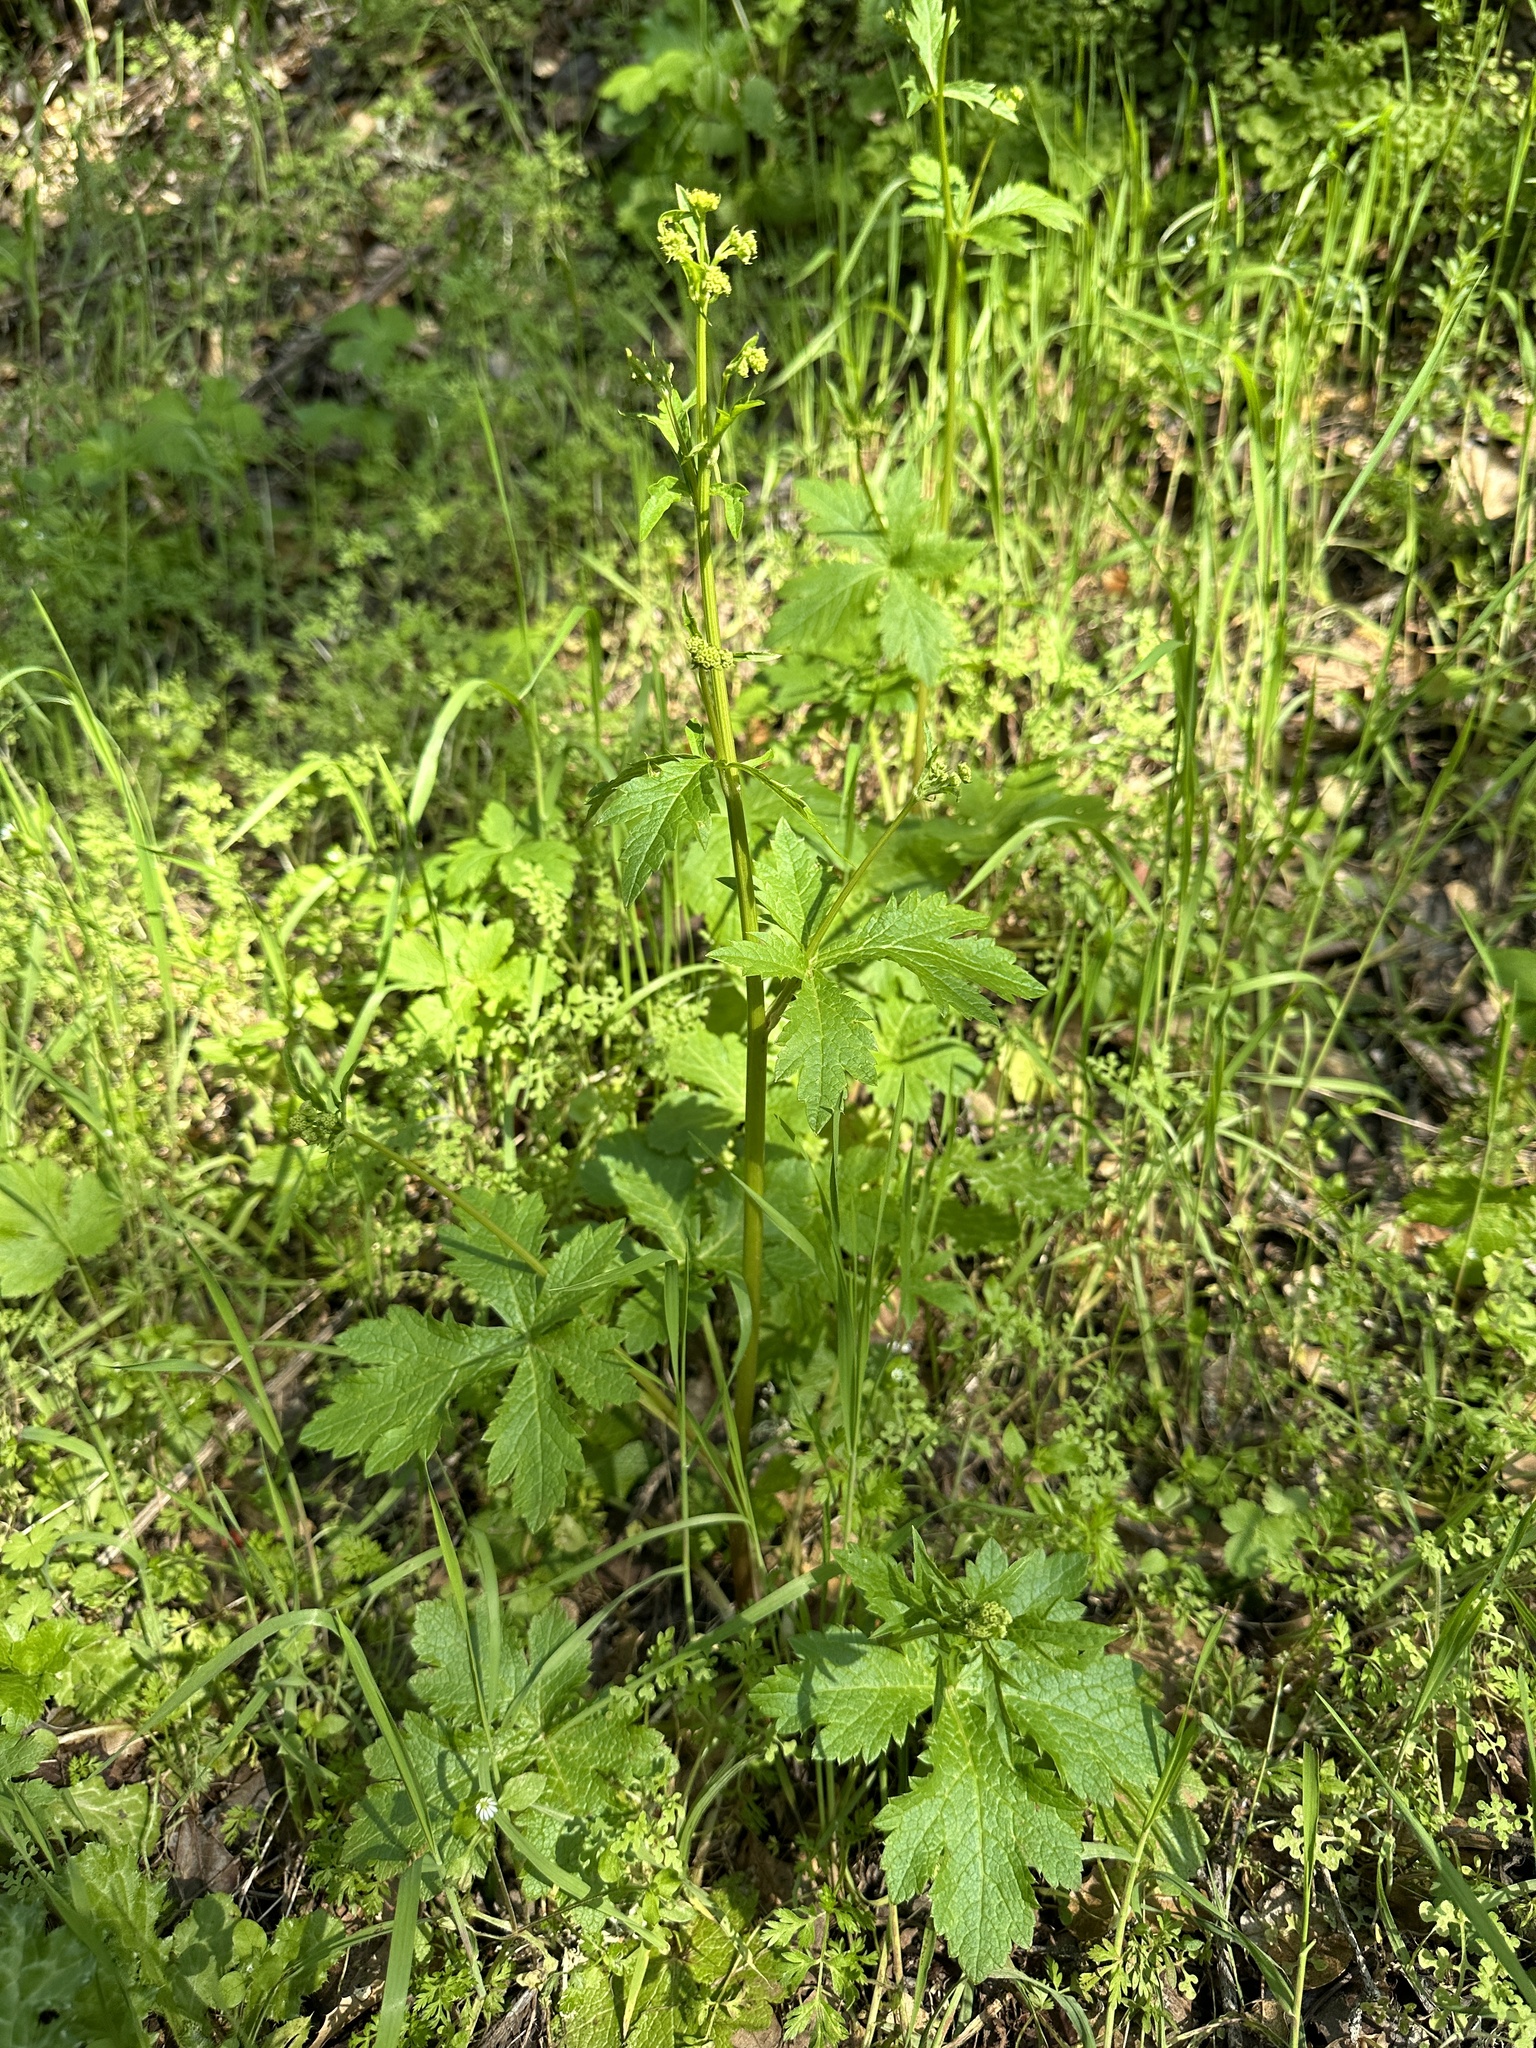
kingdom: Plantae
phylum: Tracheophyta
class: Magnoliopsida
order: Apiales
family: Apiaceae
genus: Sanicula
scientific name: Sanicula crassicaulis
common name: Western snakeroot
